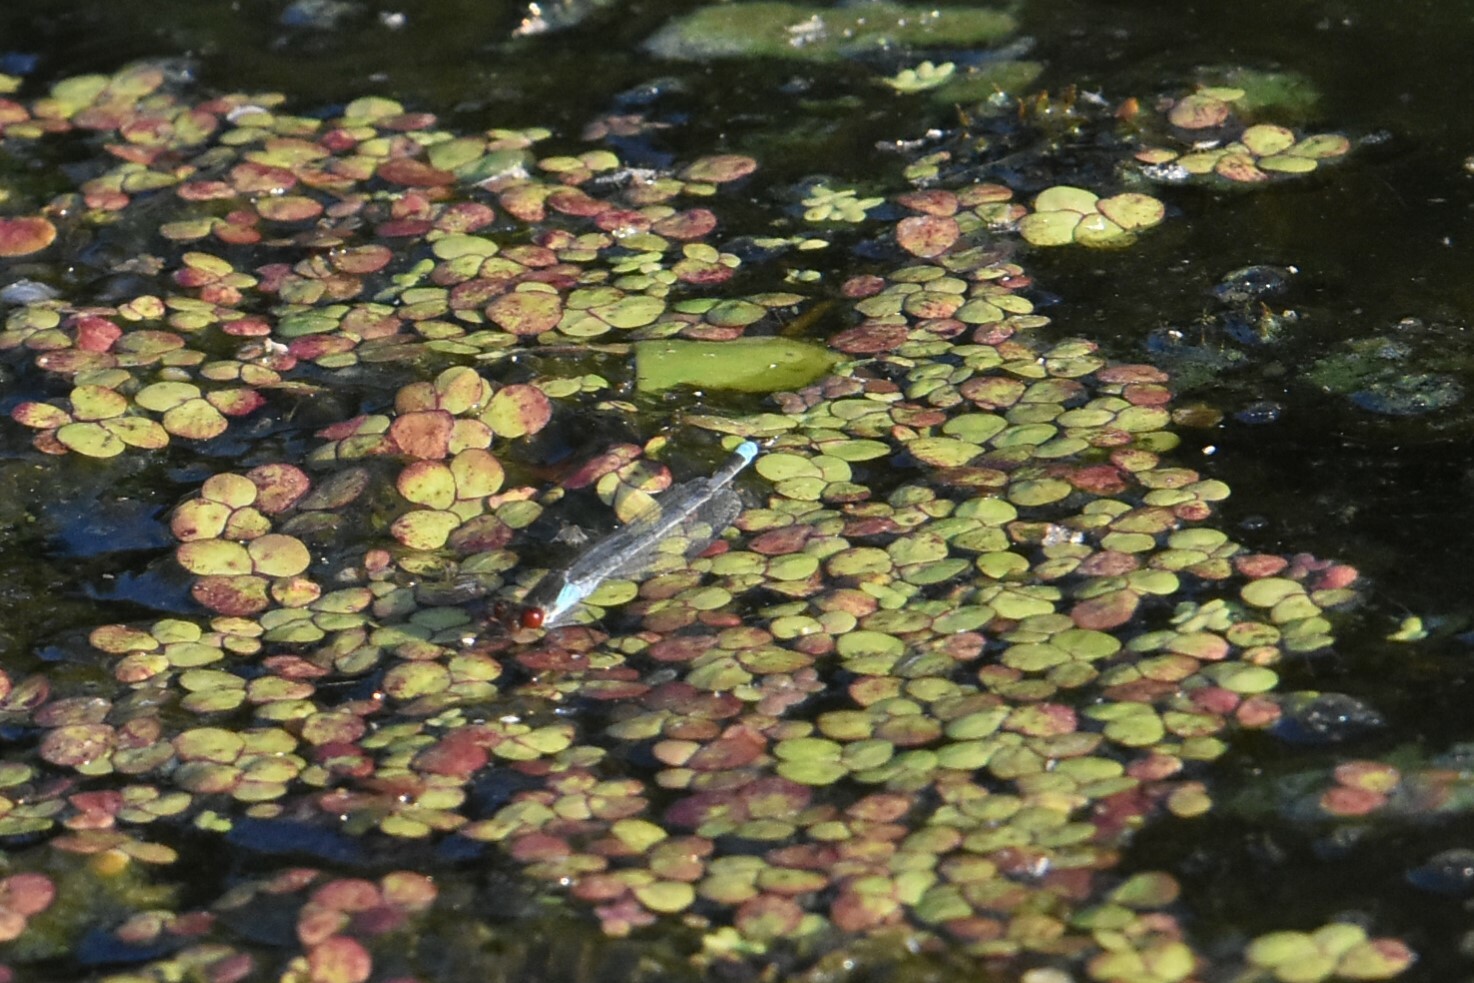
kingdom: Animalia
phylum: Arthropoda
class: Insecta
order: Odonata
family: Coenagrionidae
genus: Erythromma
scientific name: Erythromma najas
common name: Red-eyed damselfly
